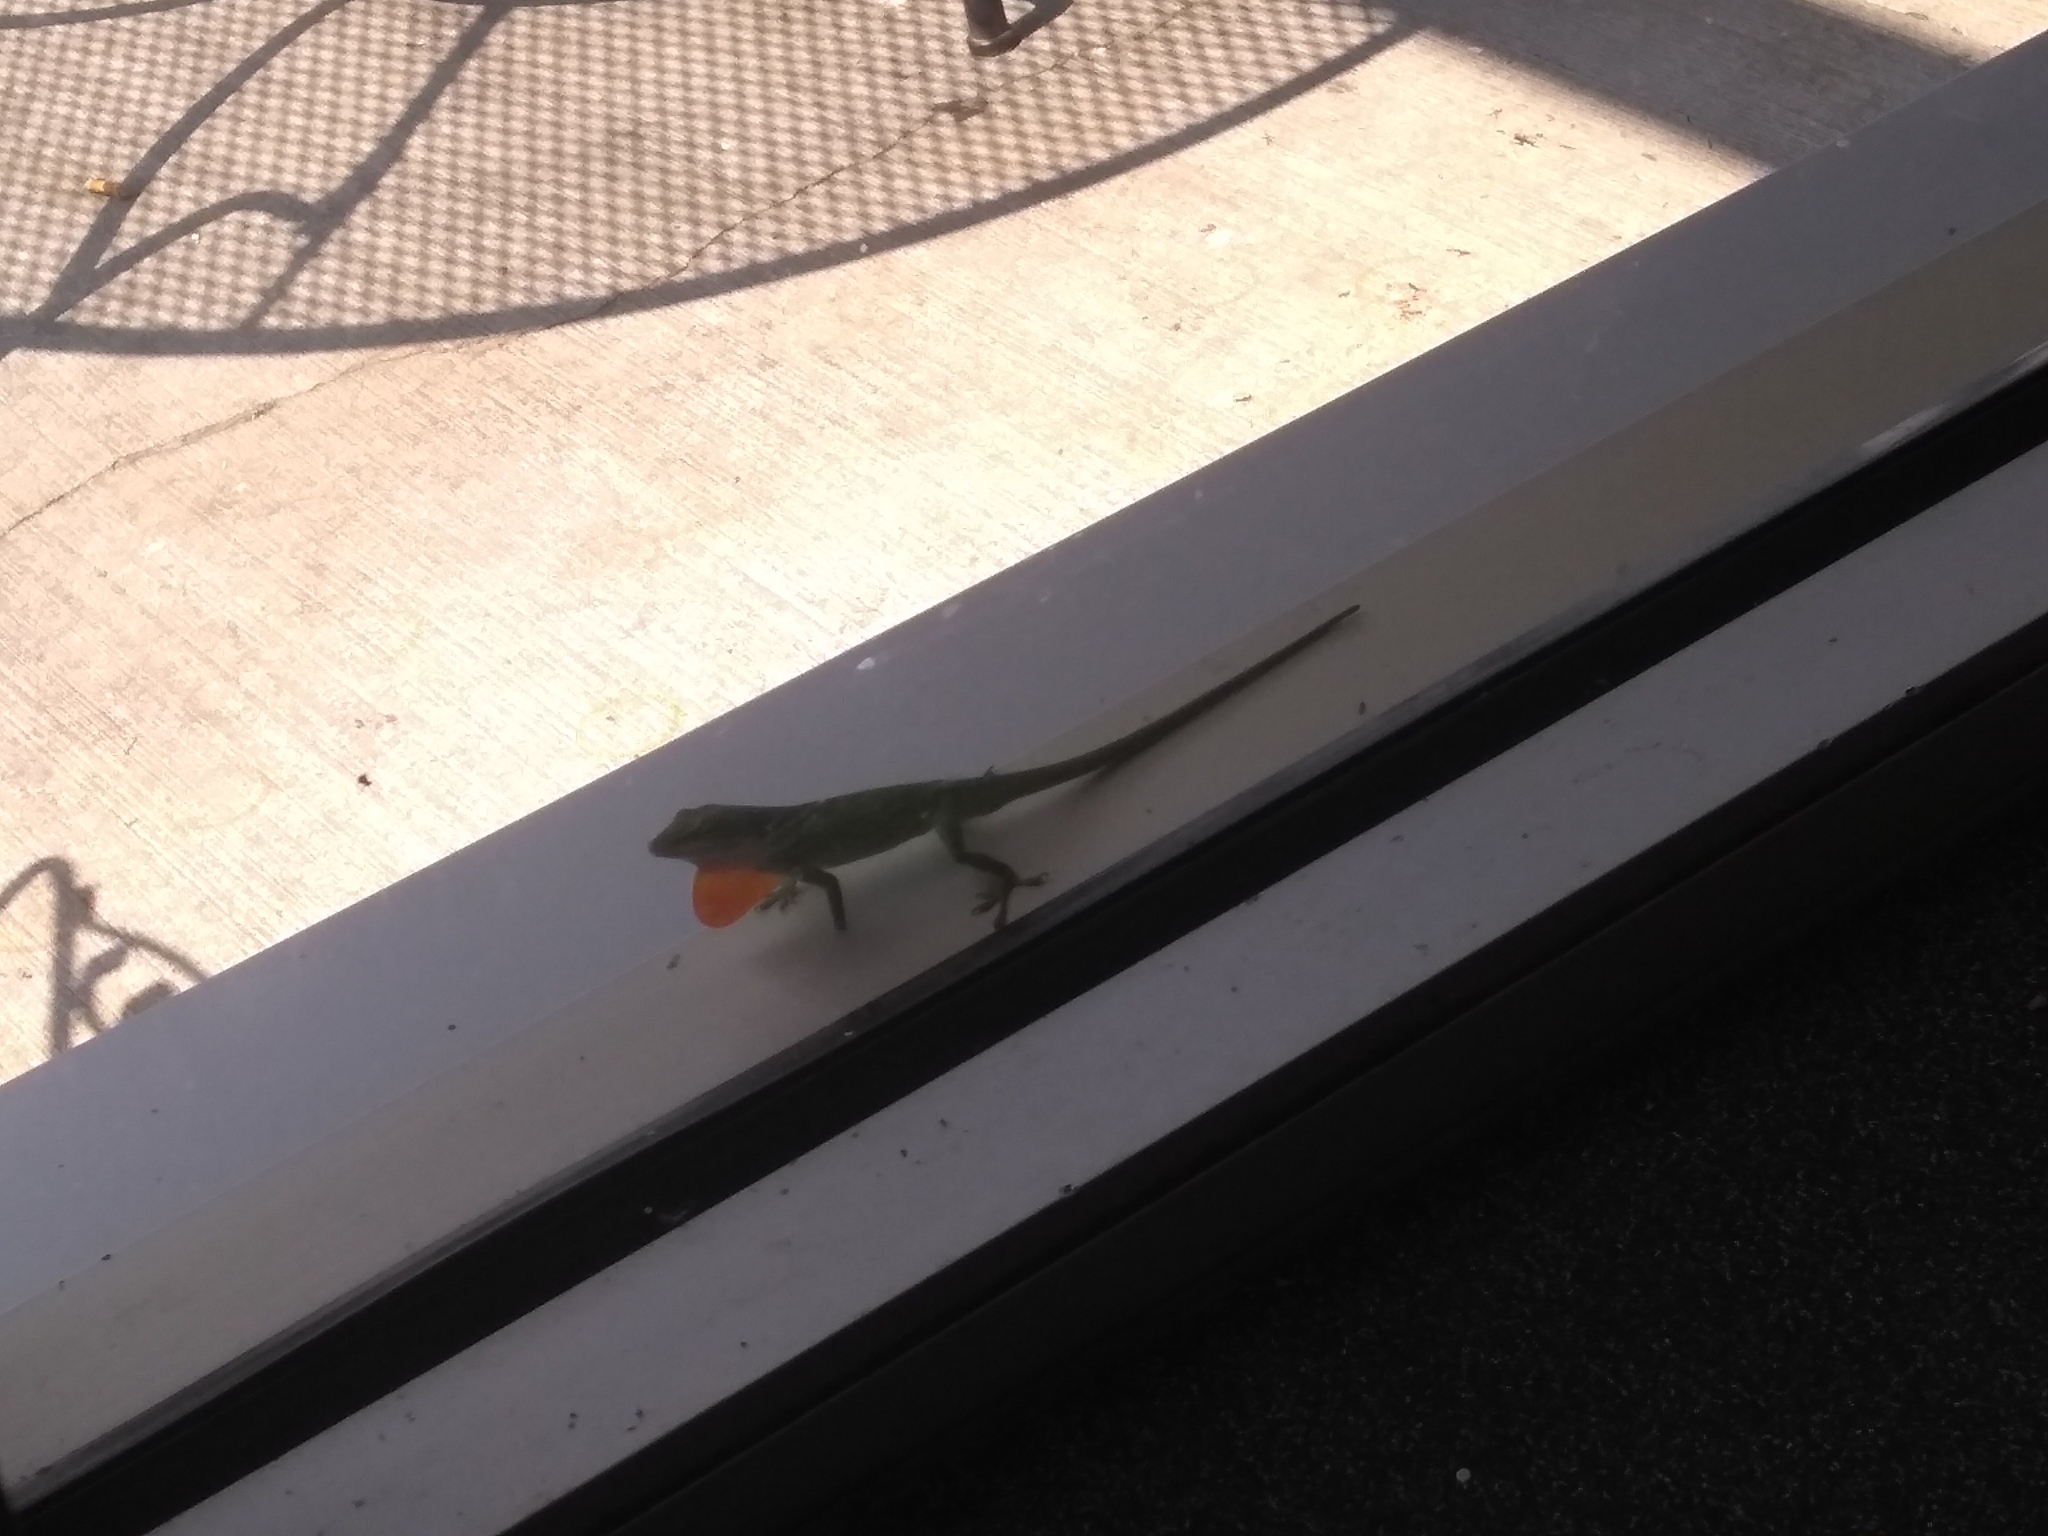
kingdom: Animalia
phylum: Chordata
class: Squamata
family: Dactyloidae
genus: Anolis
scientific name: Anolis carolinensis
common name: Green anole
